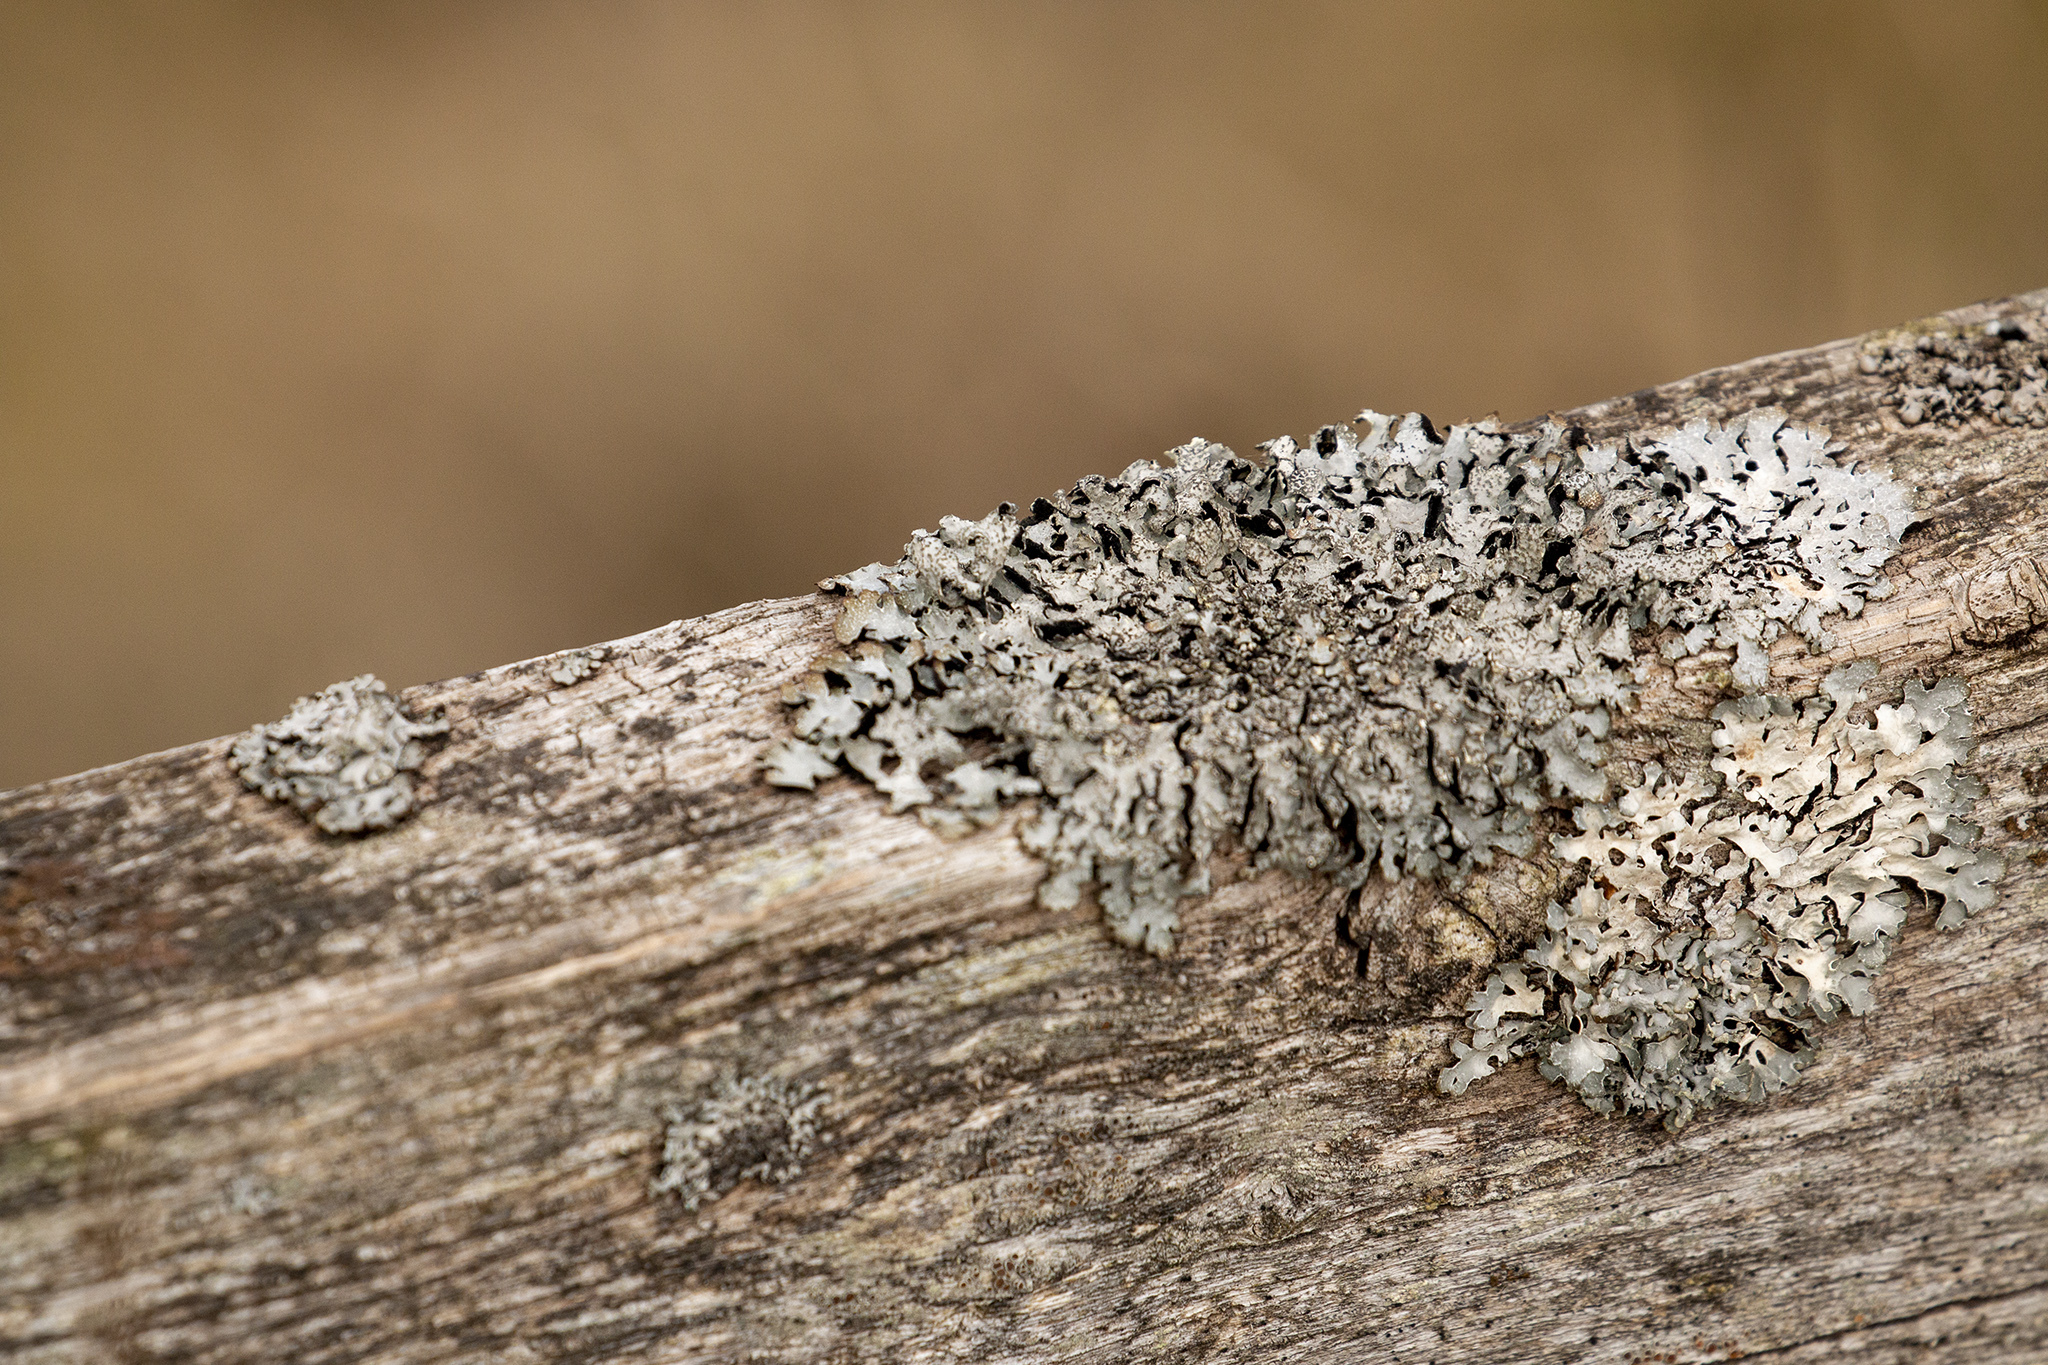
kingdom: Fungi
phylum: Ascomycota
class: Lecanoromycetes
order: Lecanorales
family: Parmeliaceae
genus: Parmelia
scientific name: Parmelia sulcata
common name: Netted shield lichen
